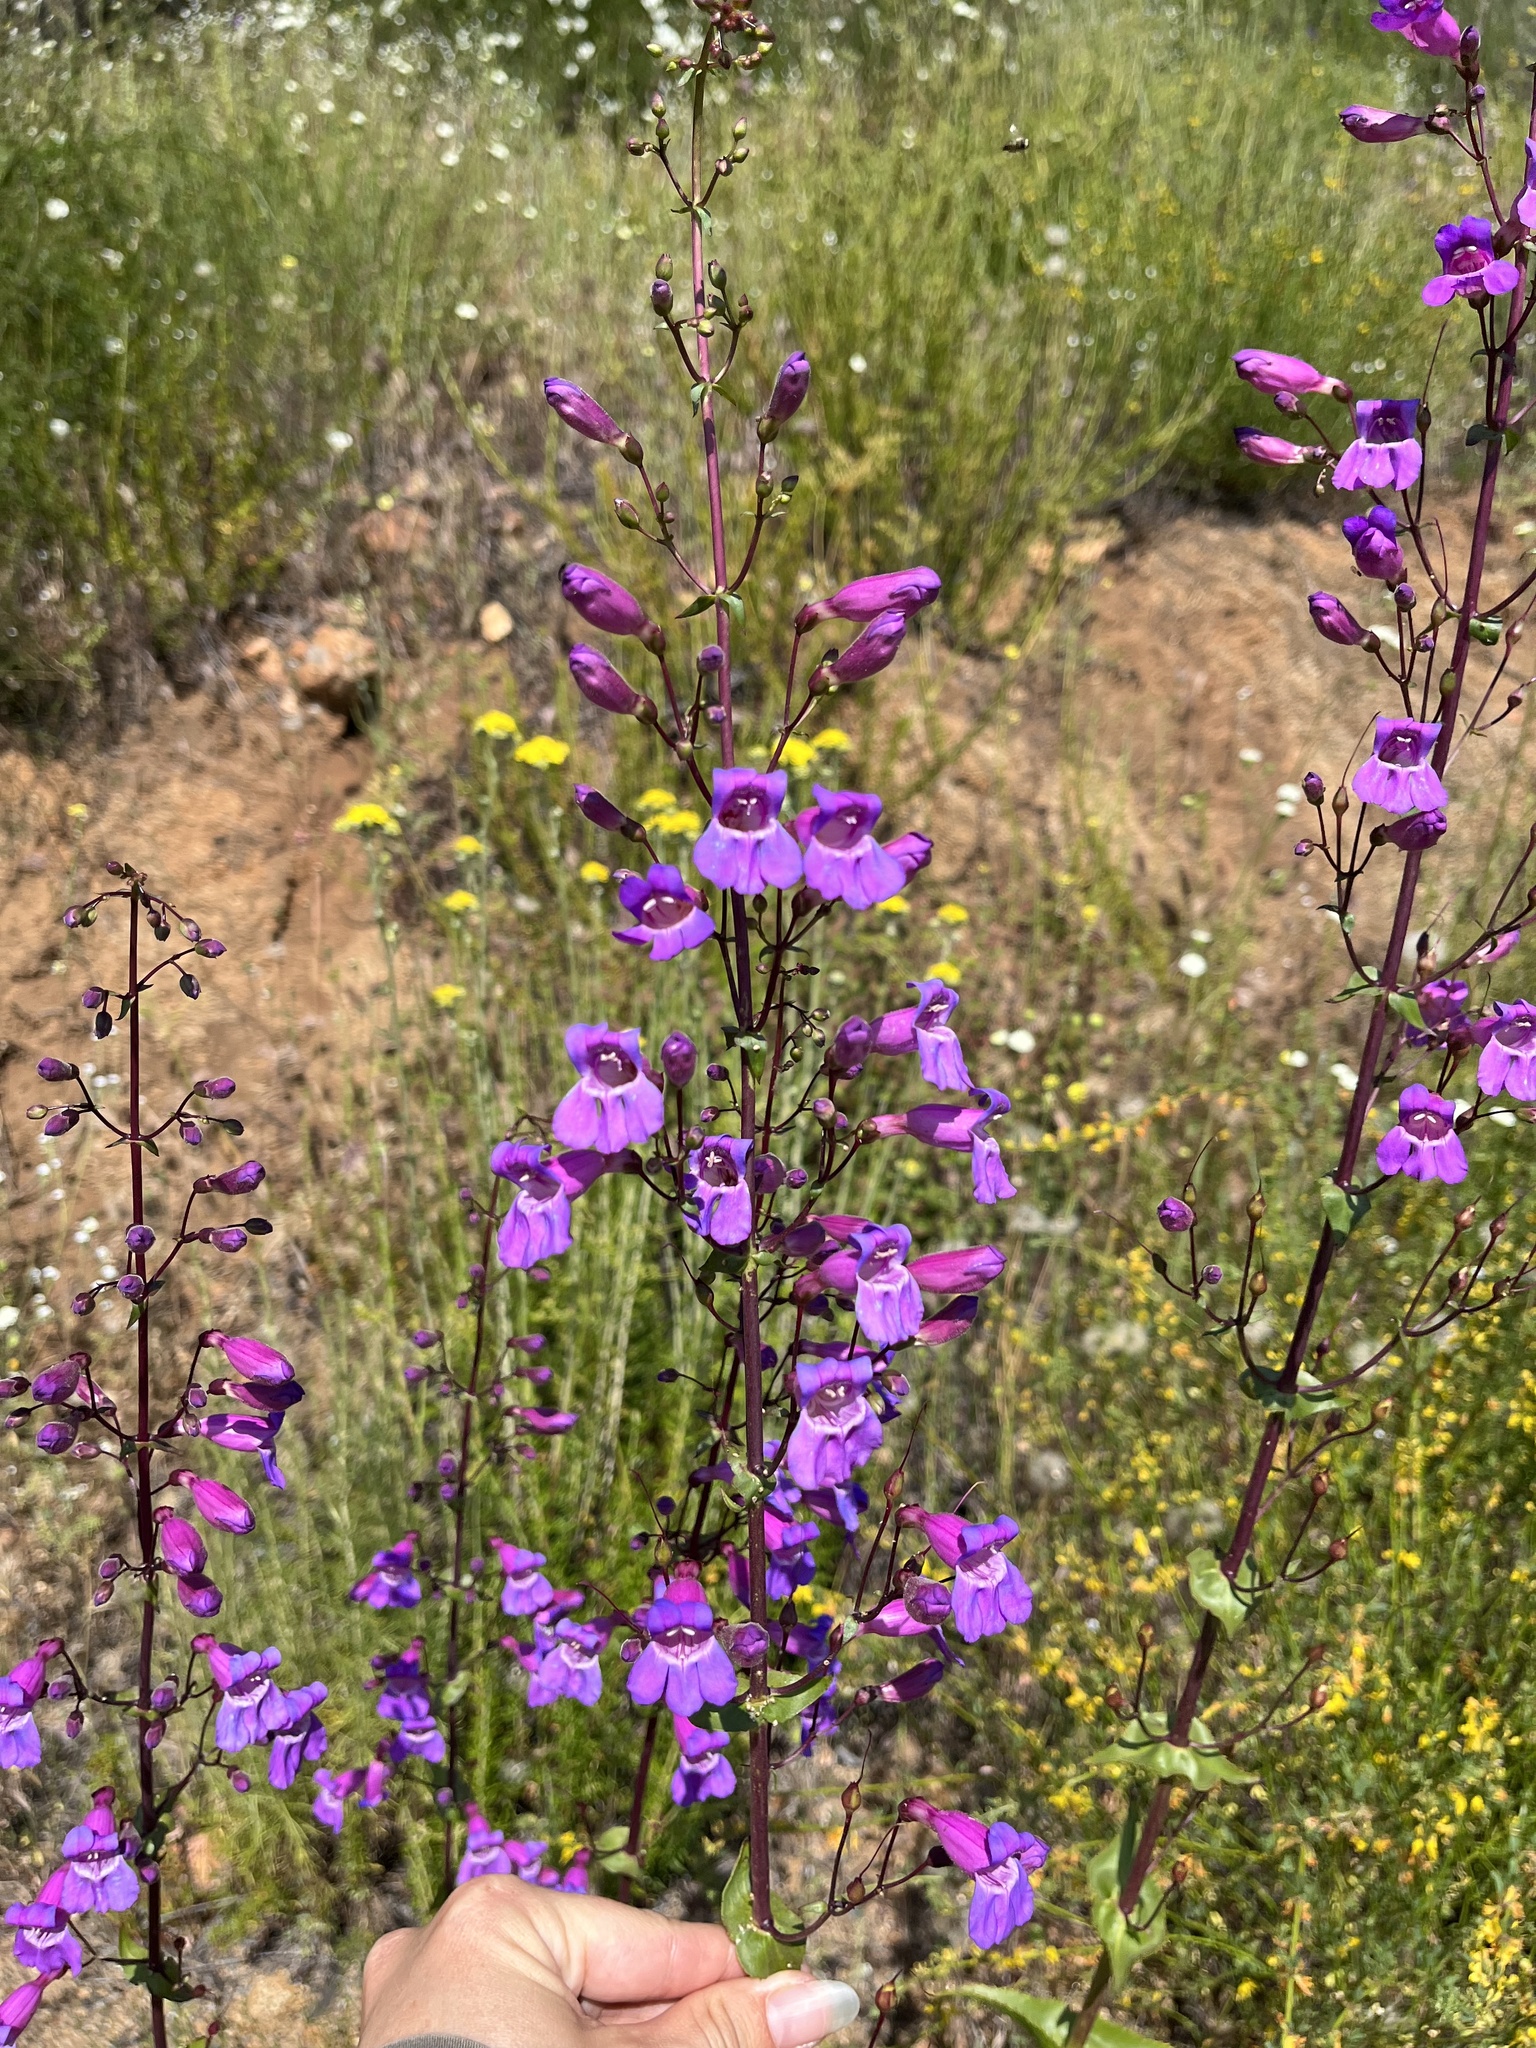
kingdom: Plantae
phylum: Tracheophyta
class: Magnoliopsida
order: Lamiales
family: Plantaginaceae
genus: Penstemon
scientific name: Penstemon spectabilis
